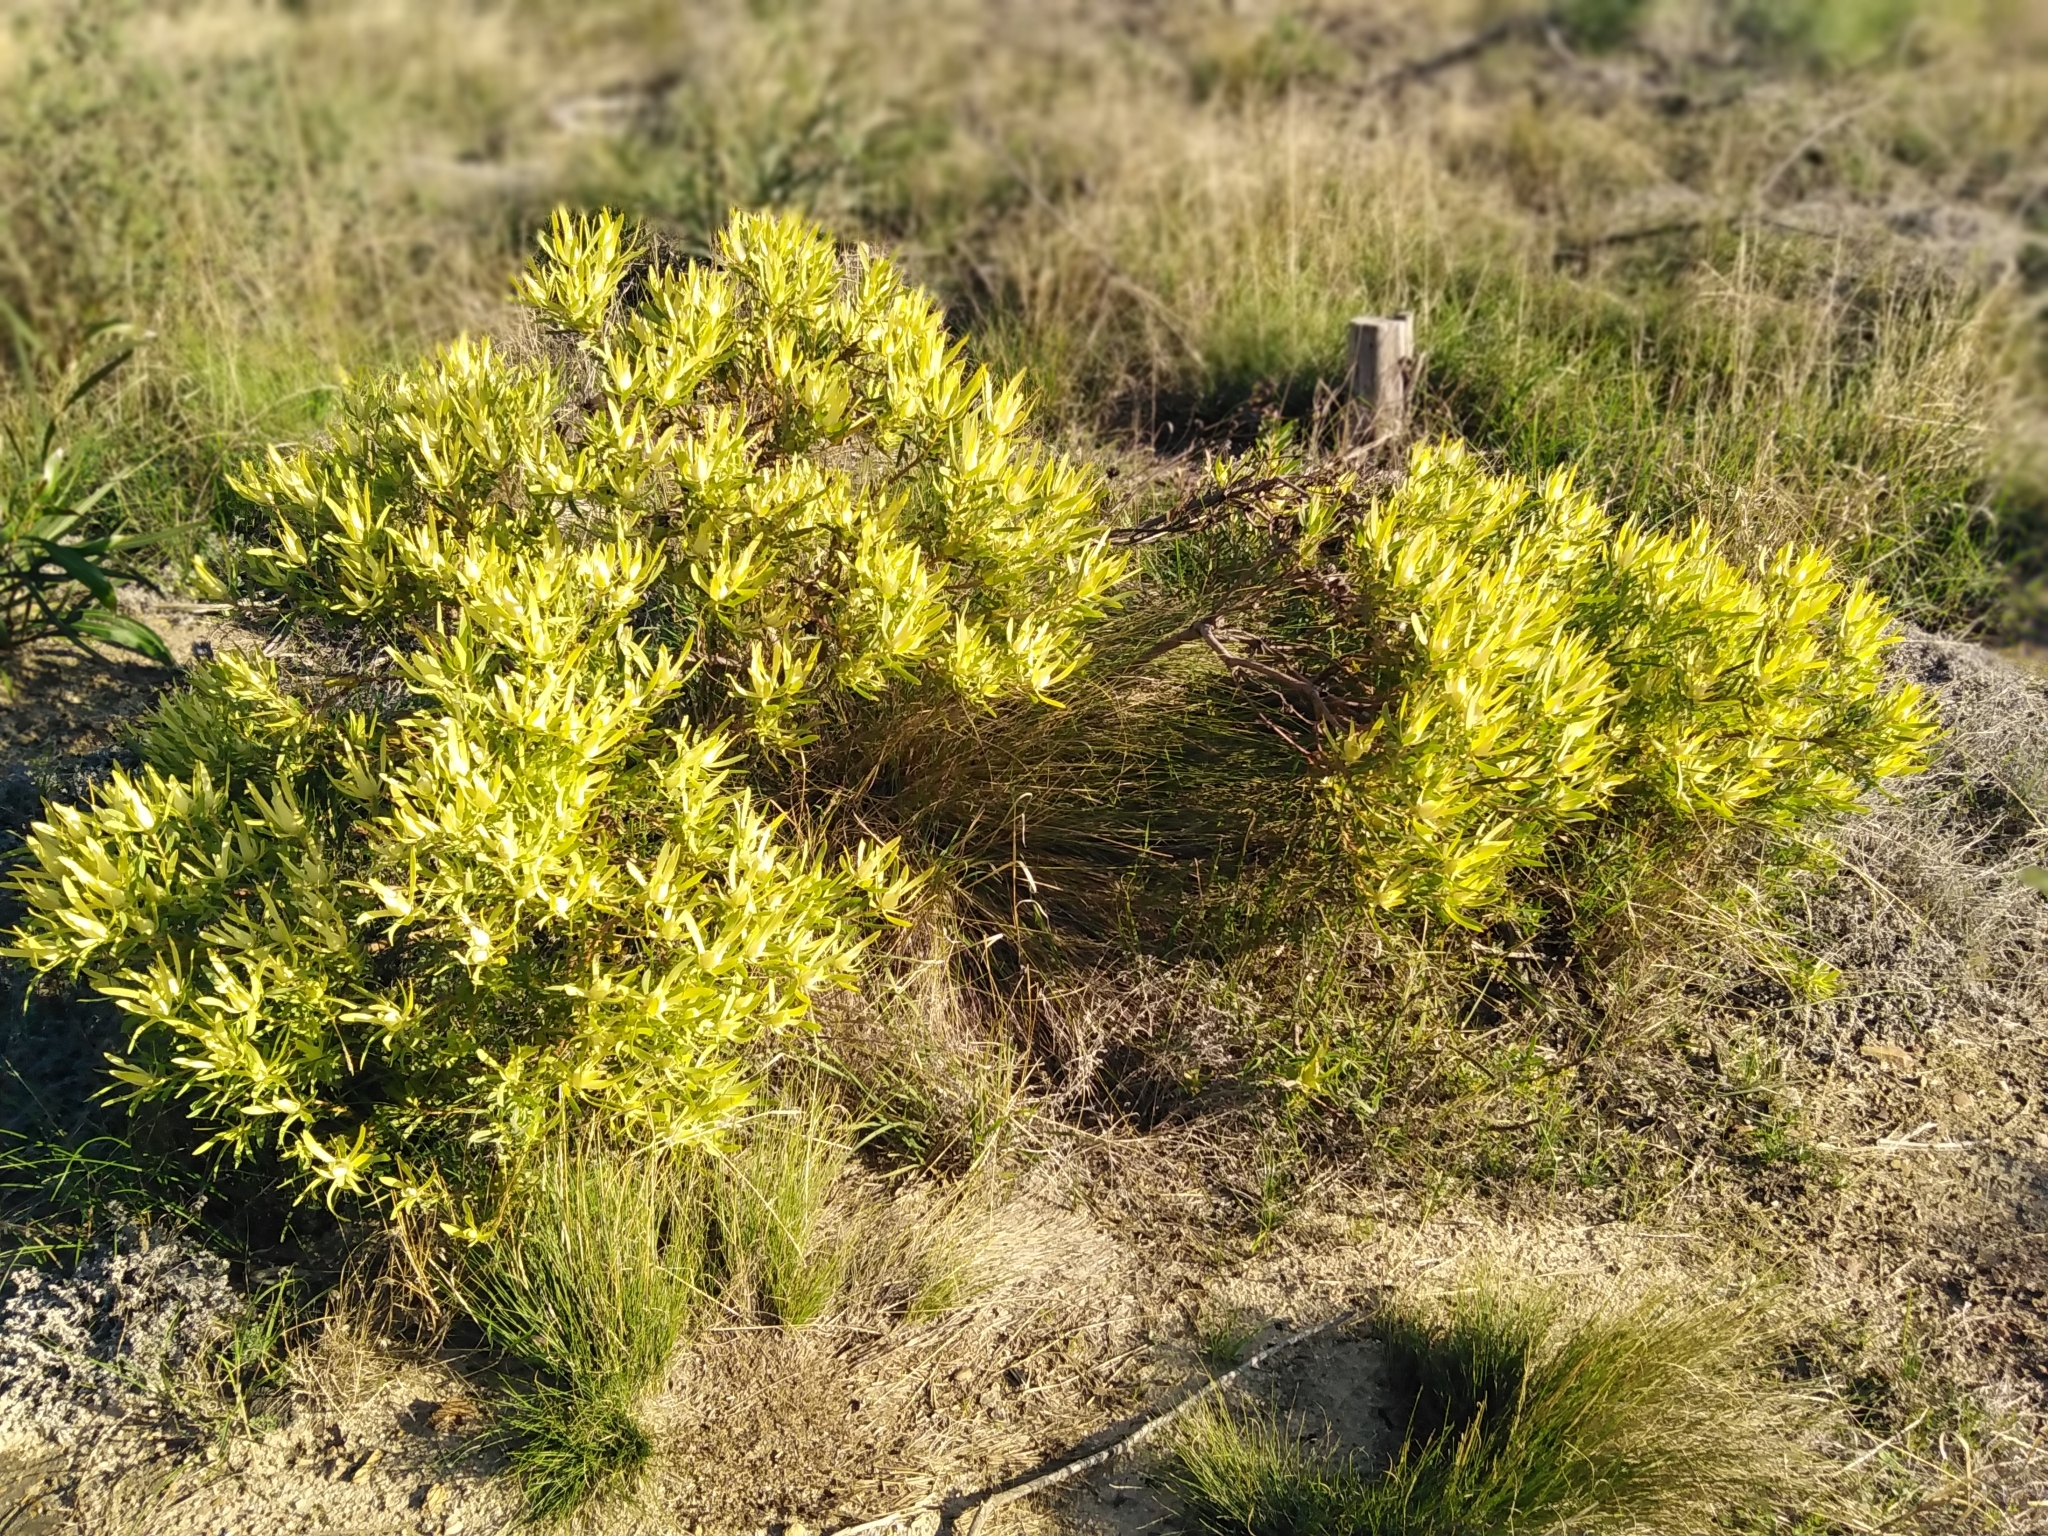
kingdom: Plantae
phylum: Tracheophyta
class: Magnoliopsida
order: Proteales
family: Proteaceae
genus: Leucadendron
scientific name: Leucadendron salignum
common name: Common sunshine conebush
